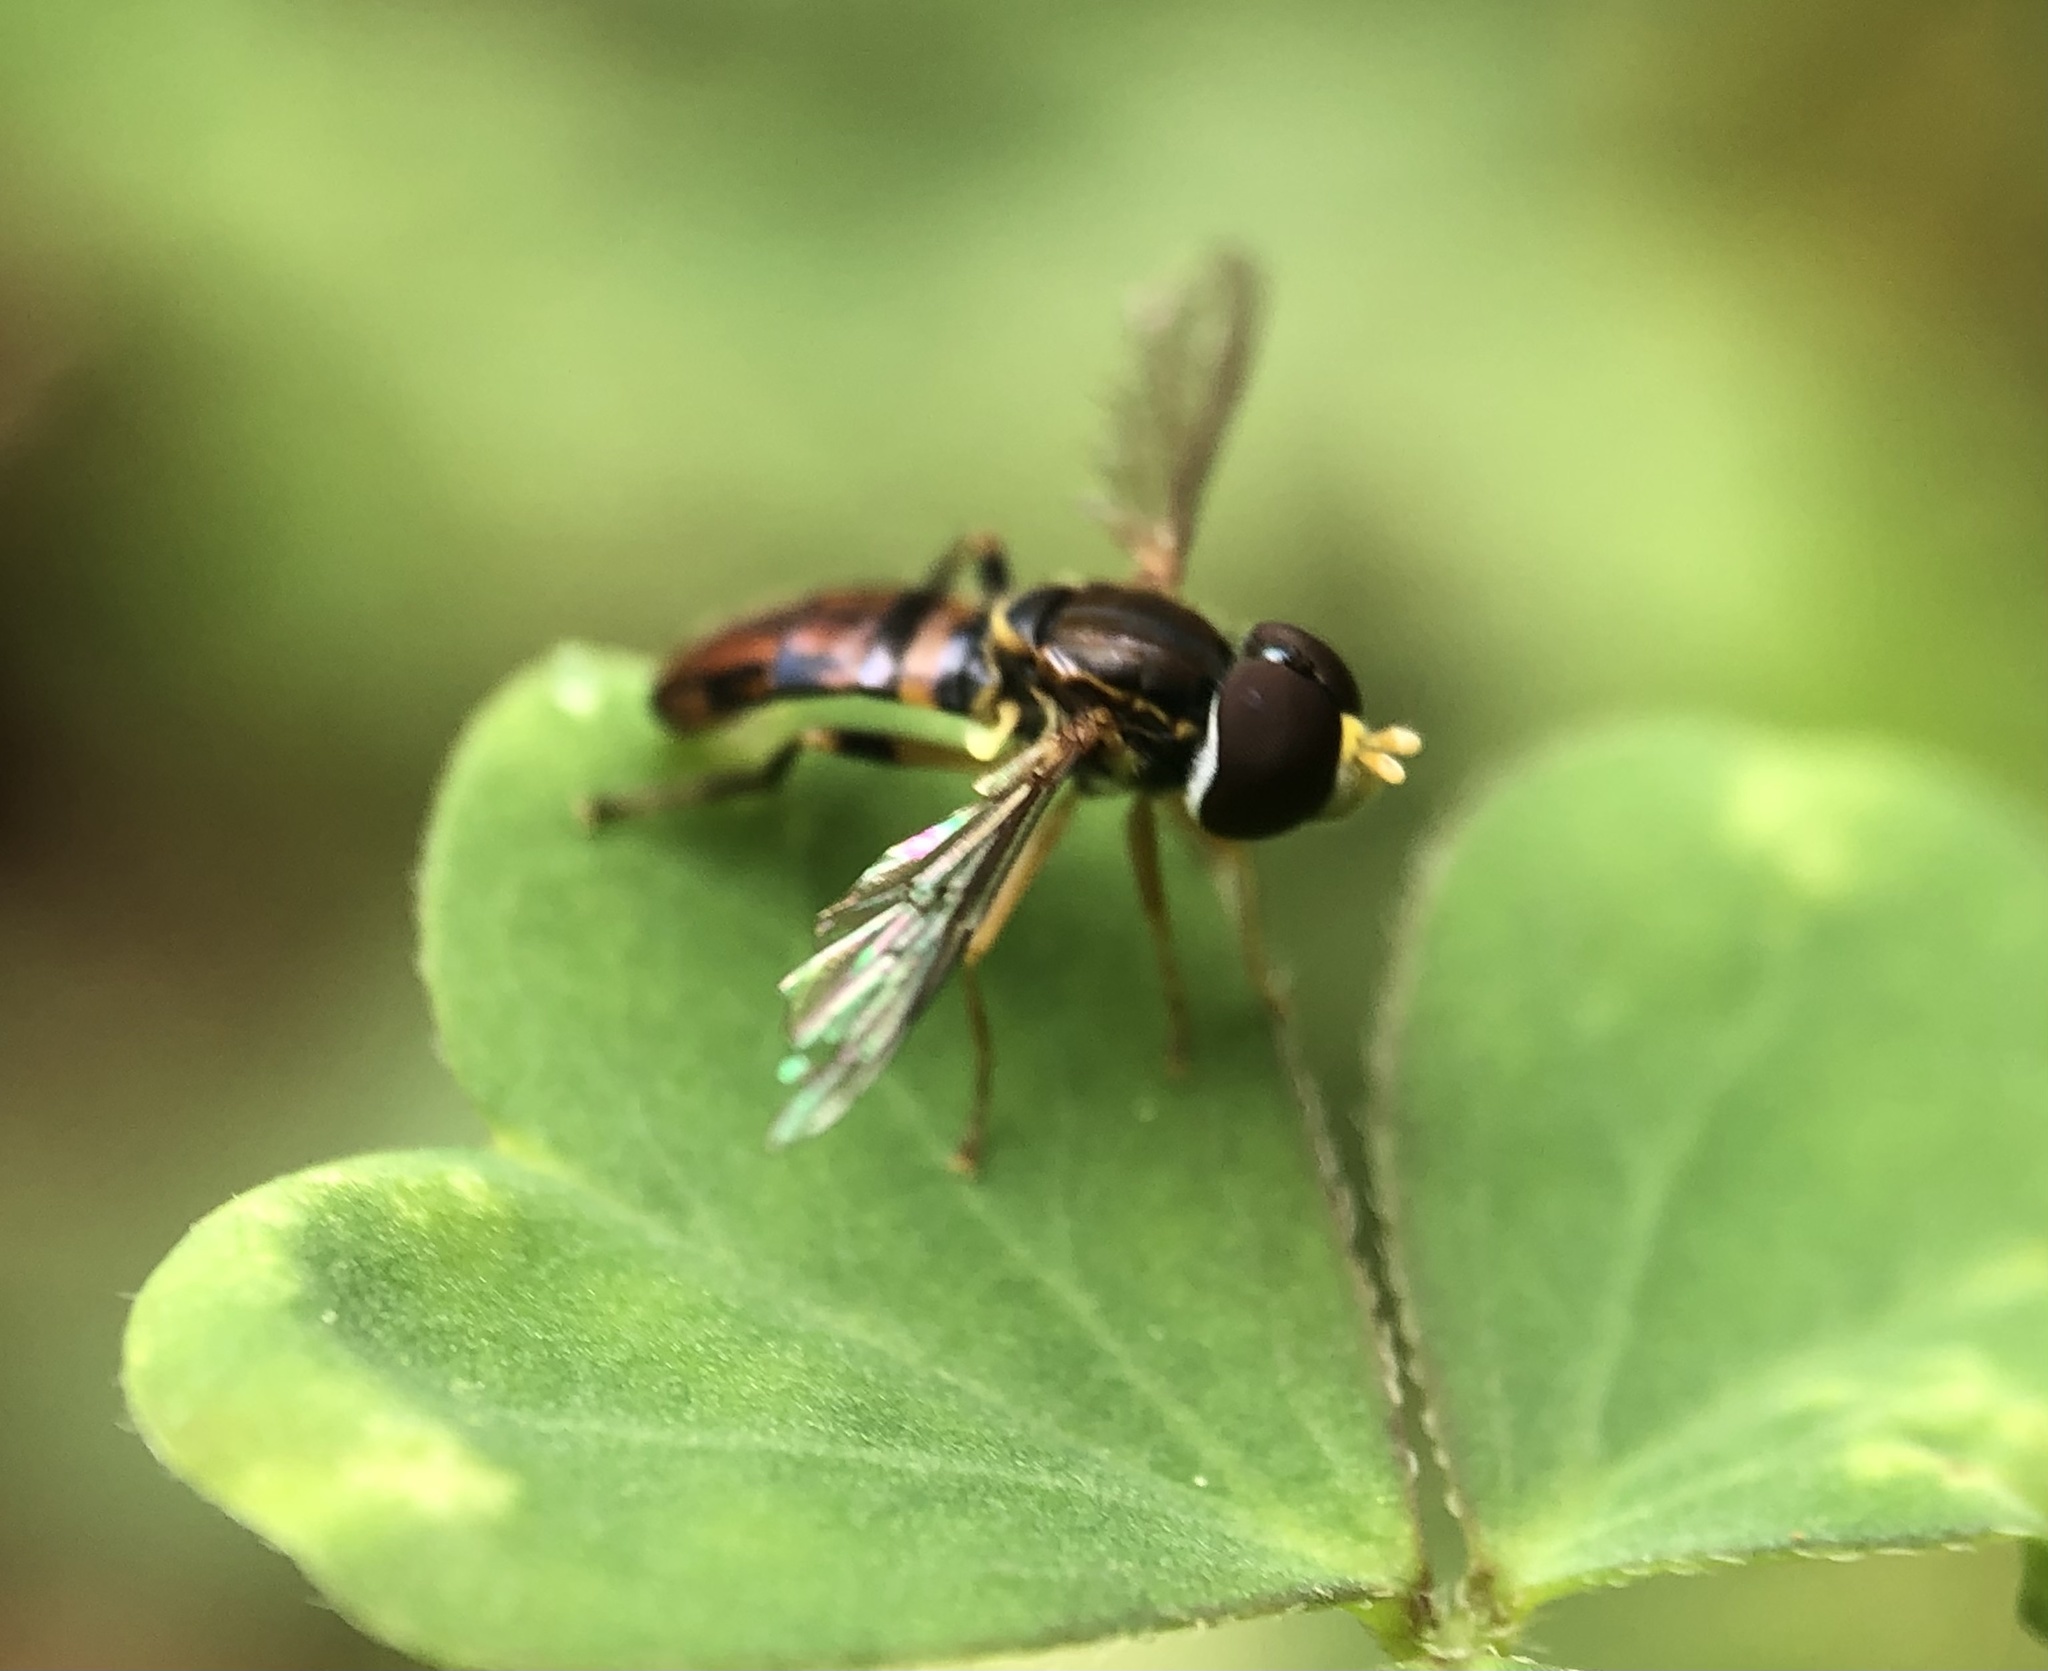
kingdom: Animalia
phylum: Arthropoda
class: Insecta
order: Diptera
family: Syrphidae
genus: Toxomerus
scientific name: Toxomerus boscii
